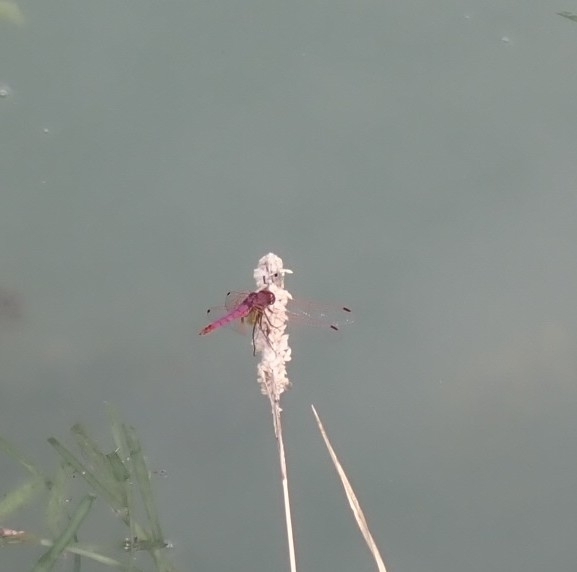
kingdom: Animalia
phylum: Arthropoda
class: Insecta
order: Odonata
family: Libellulidae
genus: Trithemis
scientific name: Trithemis annulata
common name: Violet dropwing
